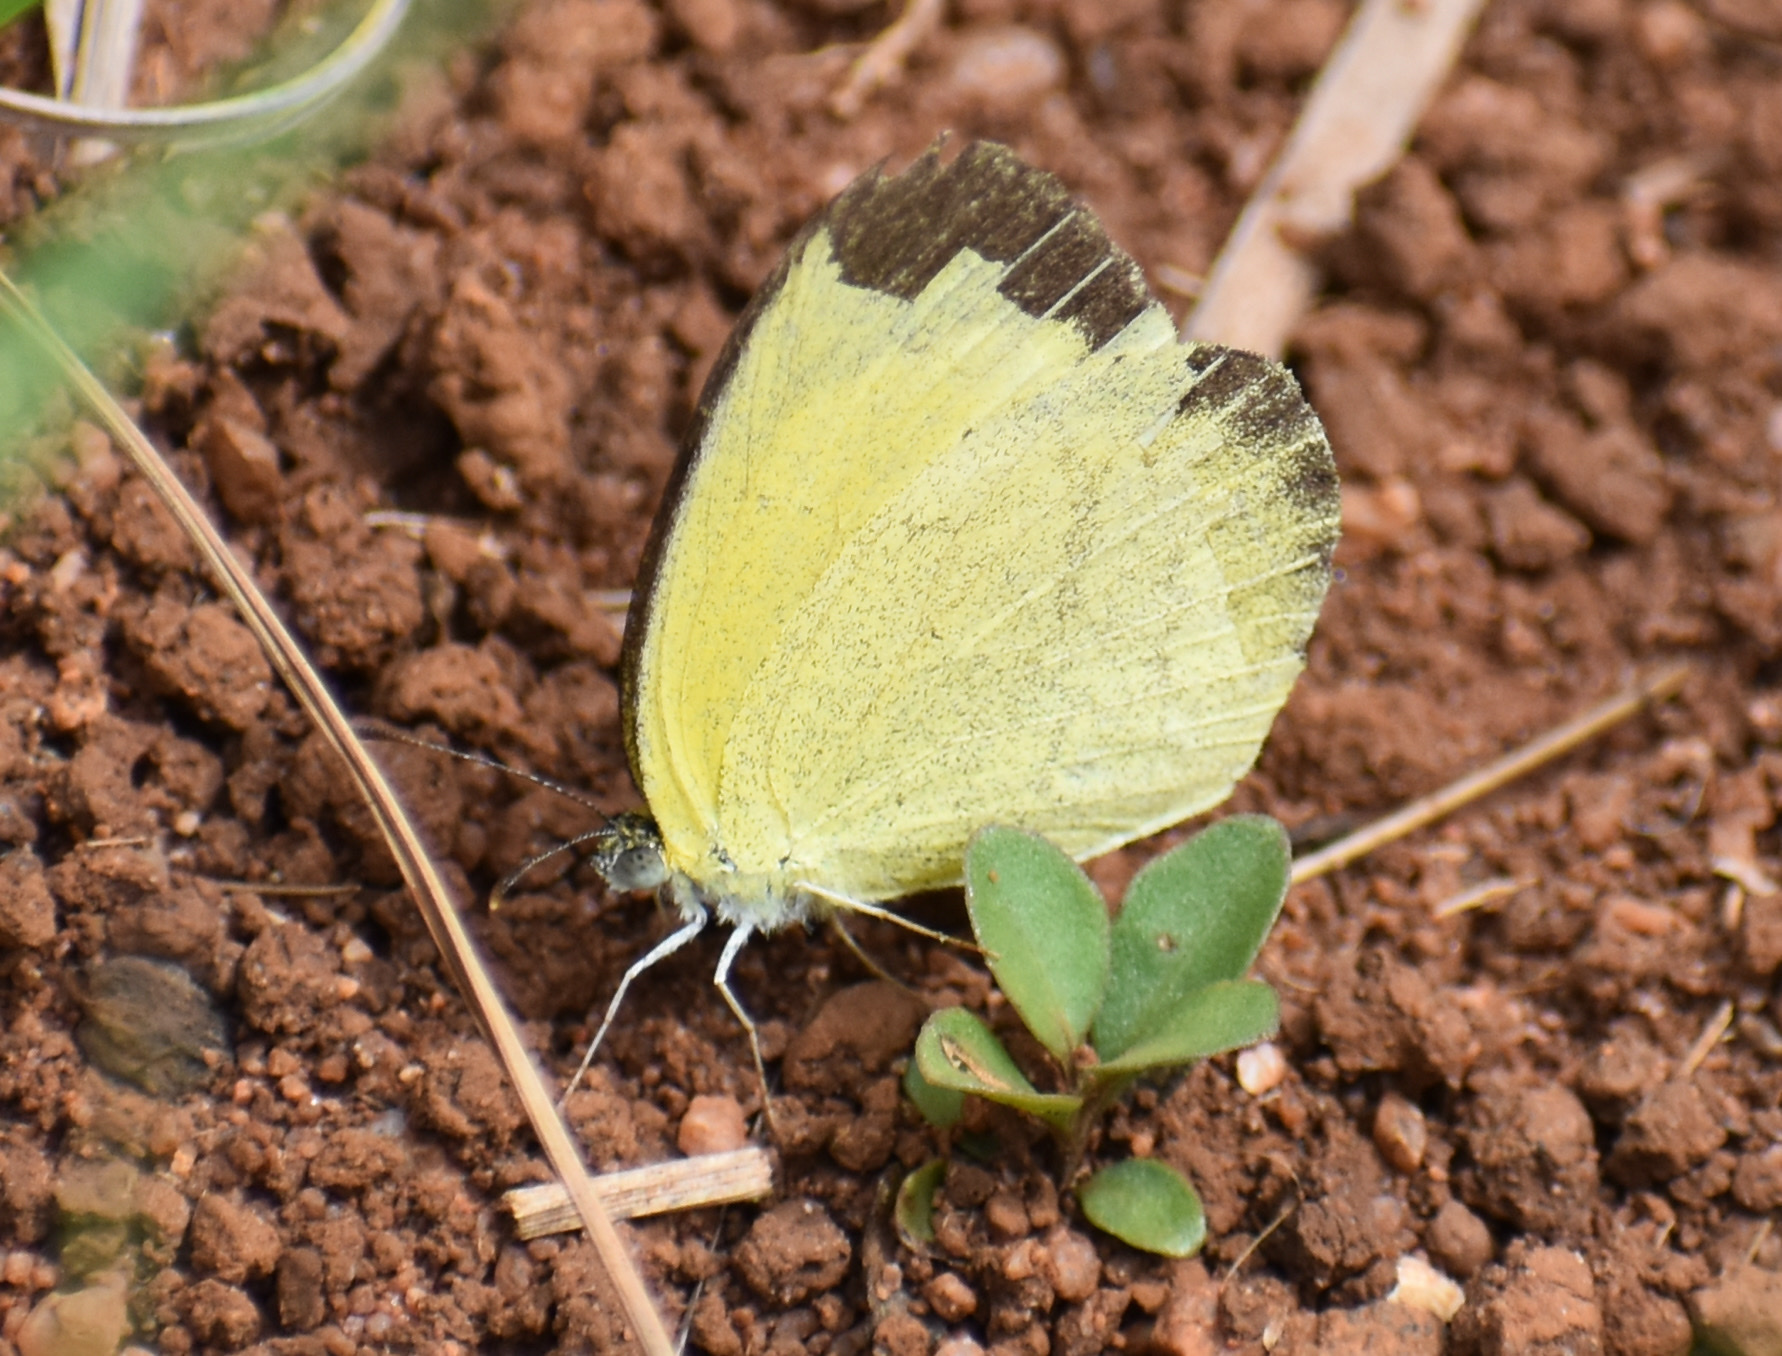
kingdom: Animalia
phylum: Arthropoda
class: Insecta
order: Lepidoptera
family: Pieridae
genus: Eurema
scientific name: Eurema brigitta
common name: Small grass yellow
